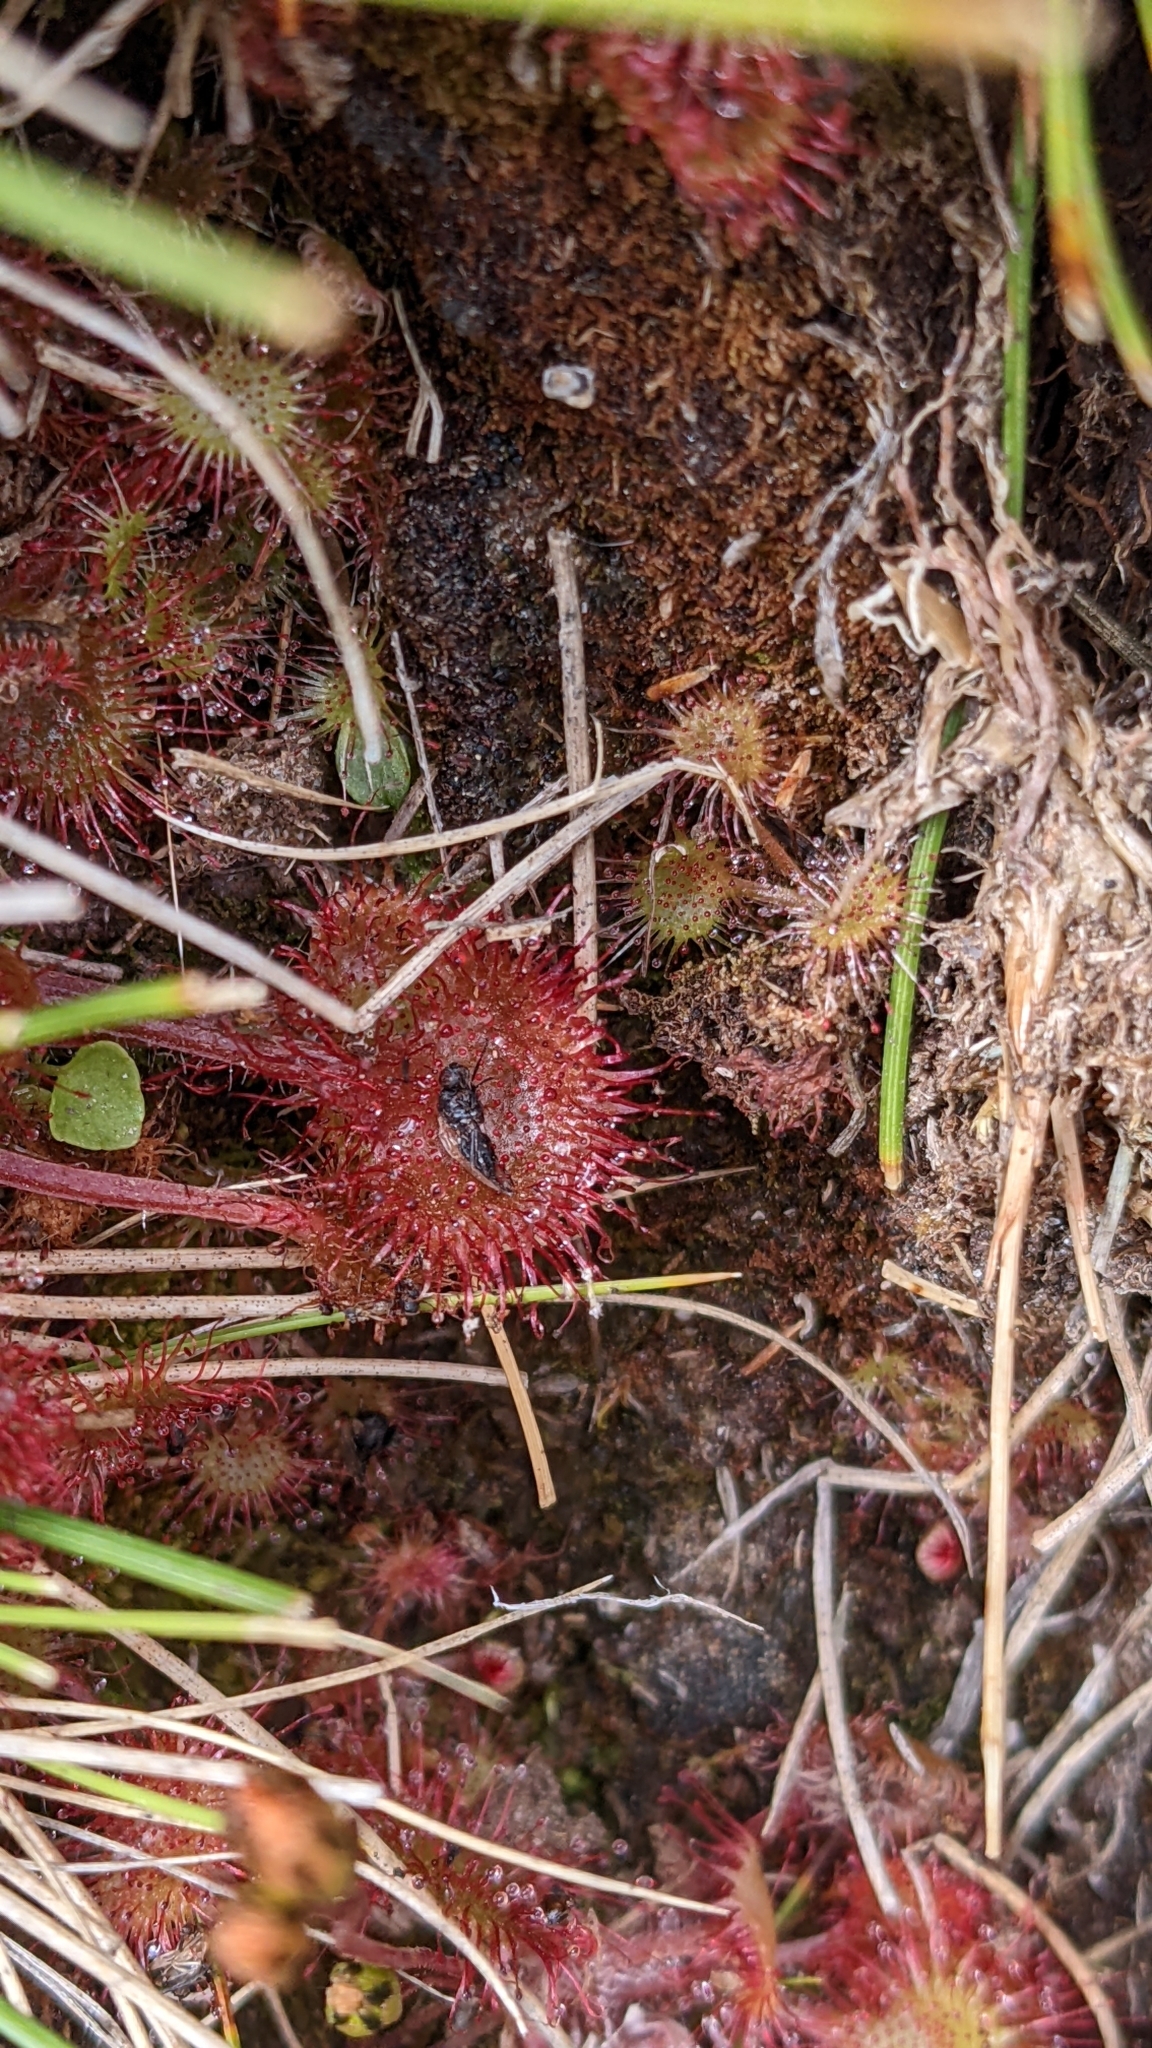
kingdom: Plantae
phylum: Tracheophyta
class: Magnoliopsida
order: Caryophyllales
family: Droseraceae
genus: Drosera
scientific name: Drosera rotundifolia
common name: Round-leaved sundew
